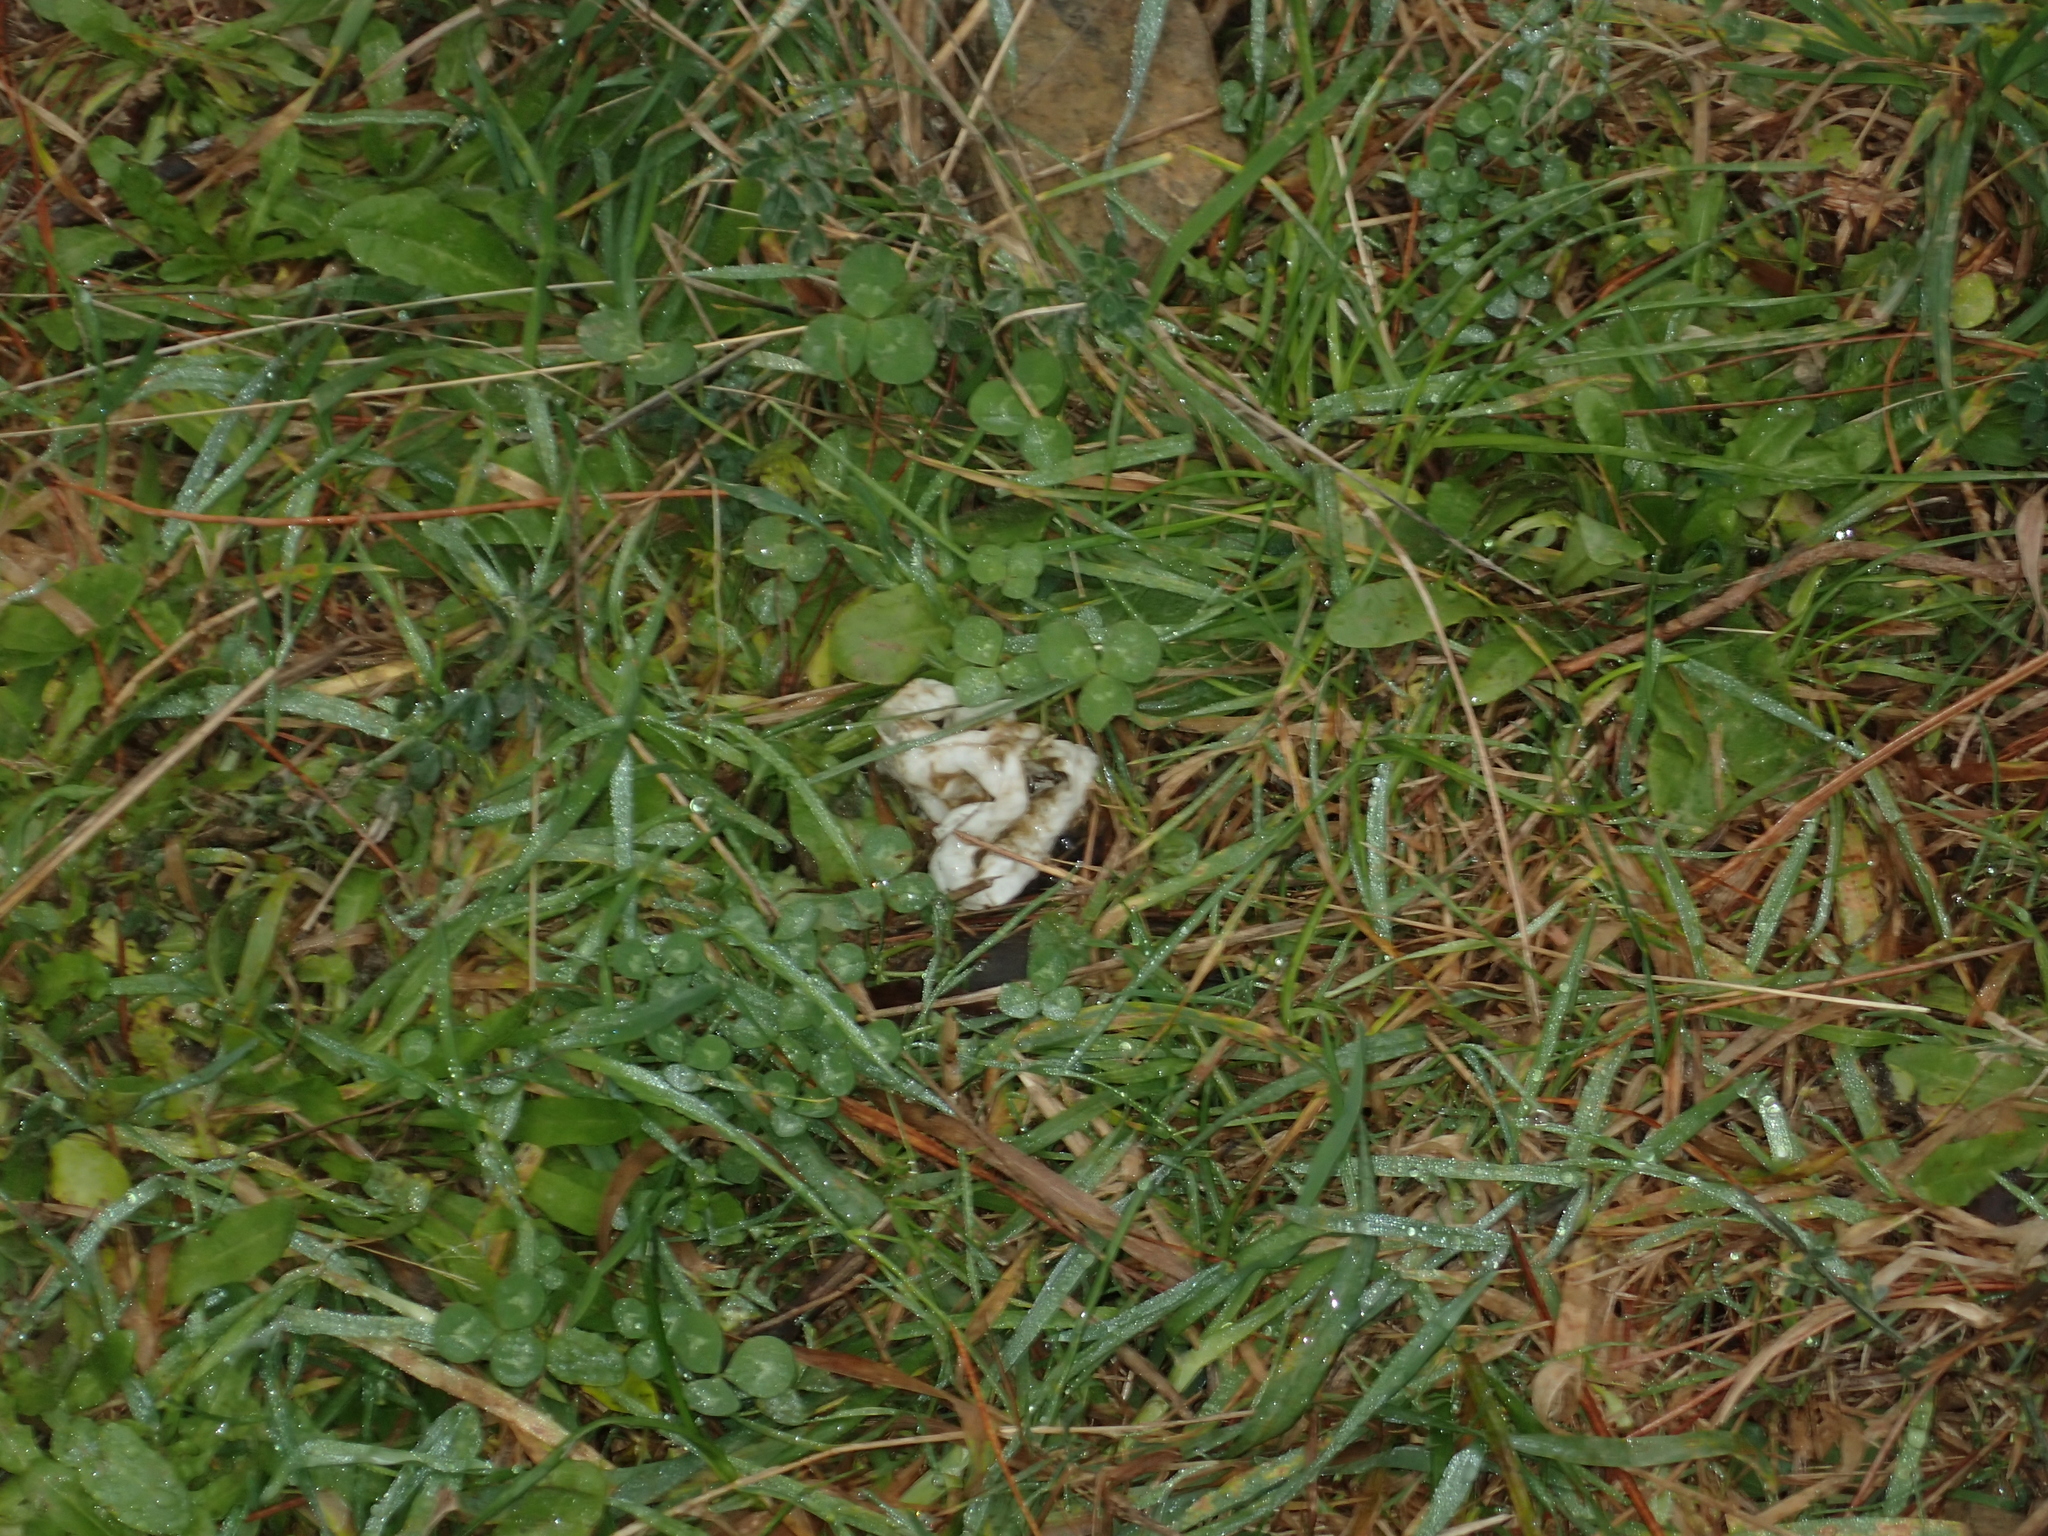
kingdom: Fungi
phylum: Basidiomycota
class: Agaricomycetes
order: Phallales
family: Phallaceae
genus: Ileodictyon
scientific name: Ileodictyon cibarium
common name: Basket fungus
